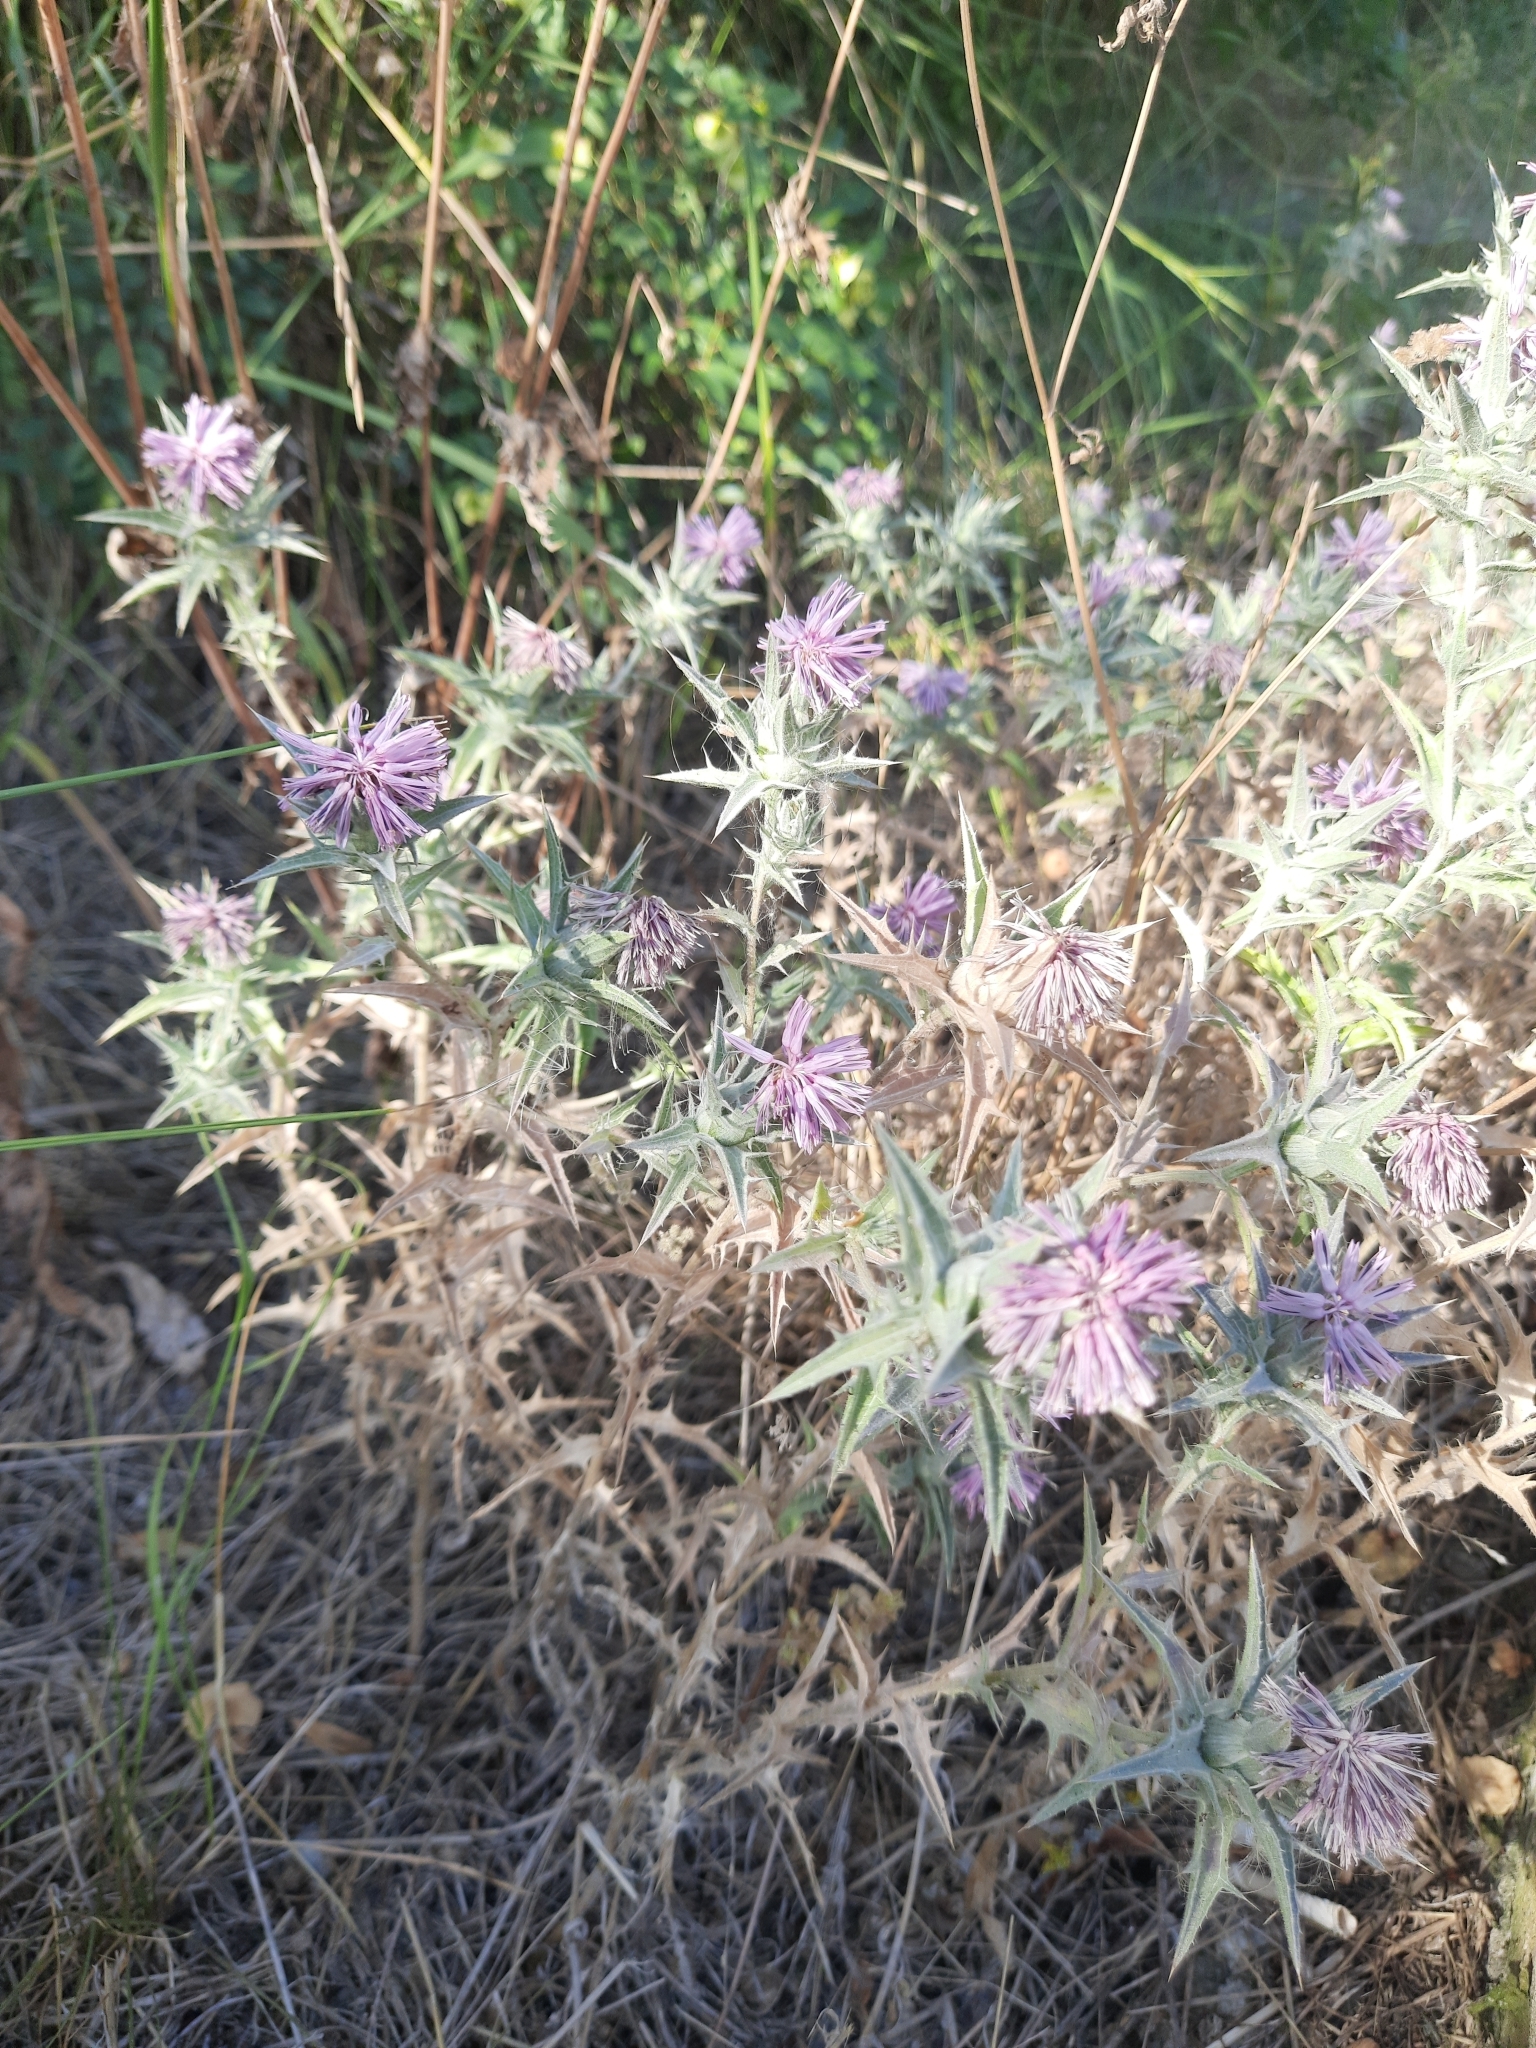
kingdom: Plantae
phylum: Tracheophyta
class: Magnoliopsida
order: Asterales
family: Asteraceae
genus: Carthamus
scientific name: Carthamus glaucus
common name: Mediterranean thistle
